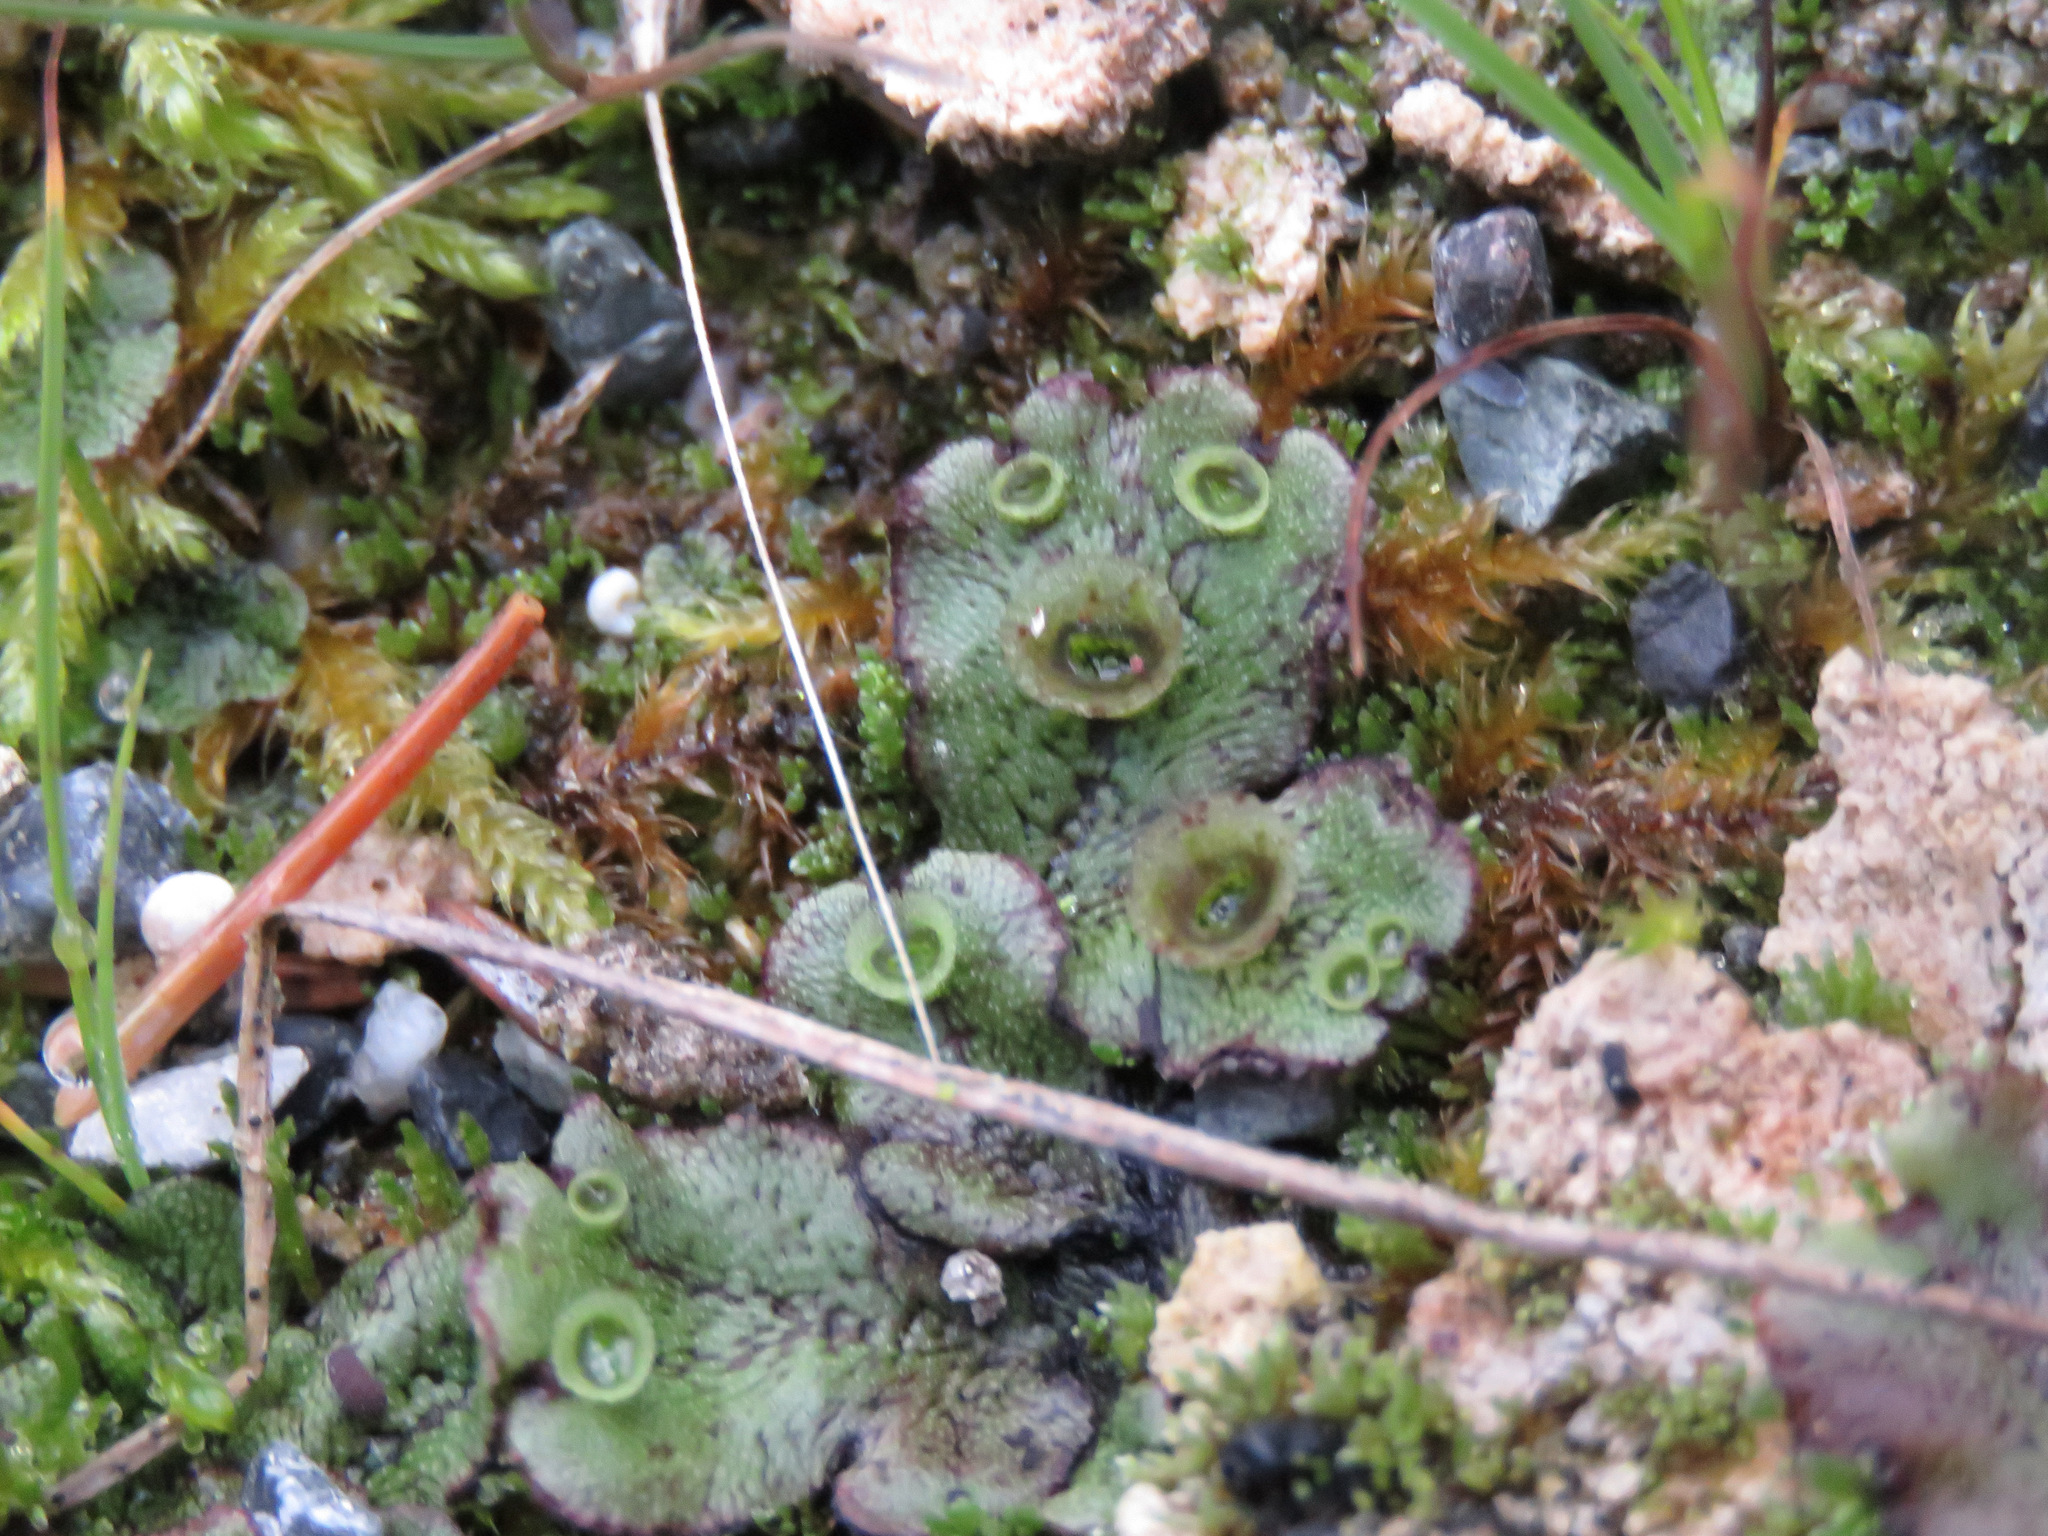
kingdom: Plantae
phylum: Marchantiophyta
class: Marchantiopsida
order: Marchantiales
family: Marchantiaceae
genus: Marchantia
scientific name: Marchantia polymorpha
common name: Common liverwort
